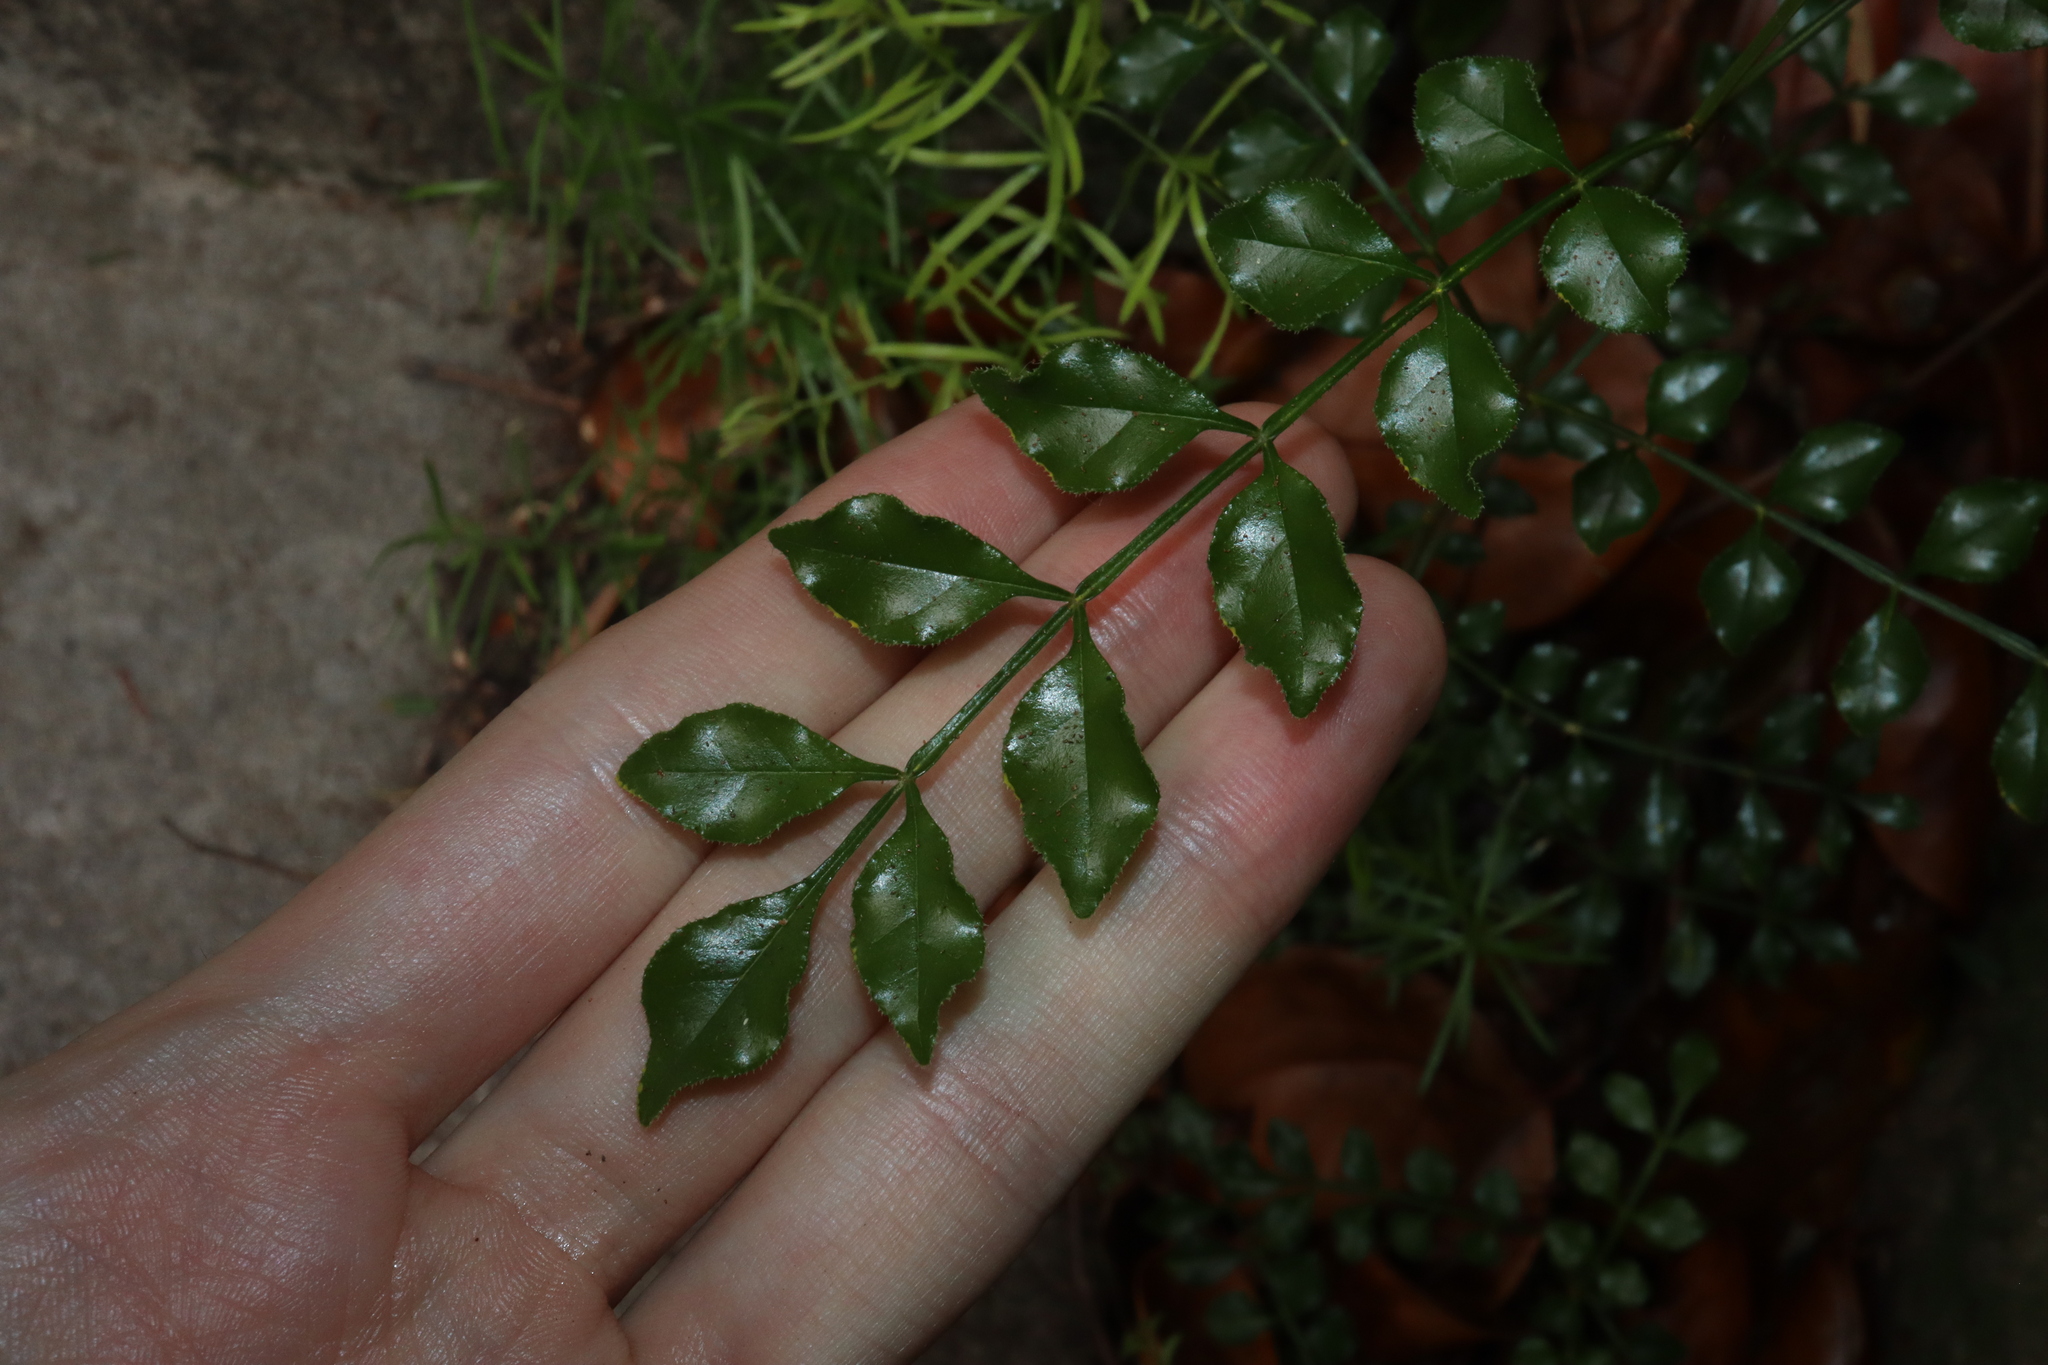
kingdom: Plantae
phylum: Tracheophyta
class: Magnoliopsida
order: Lamiales
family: Oleaceae
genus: Fraxinus
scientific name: Fraxinus griffithii
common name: Himalayan ash
